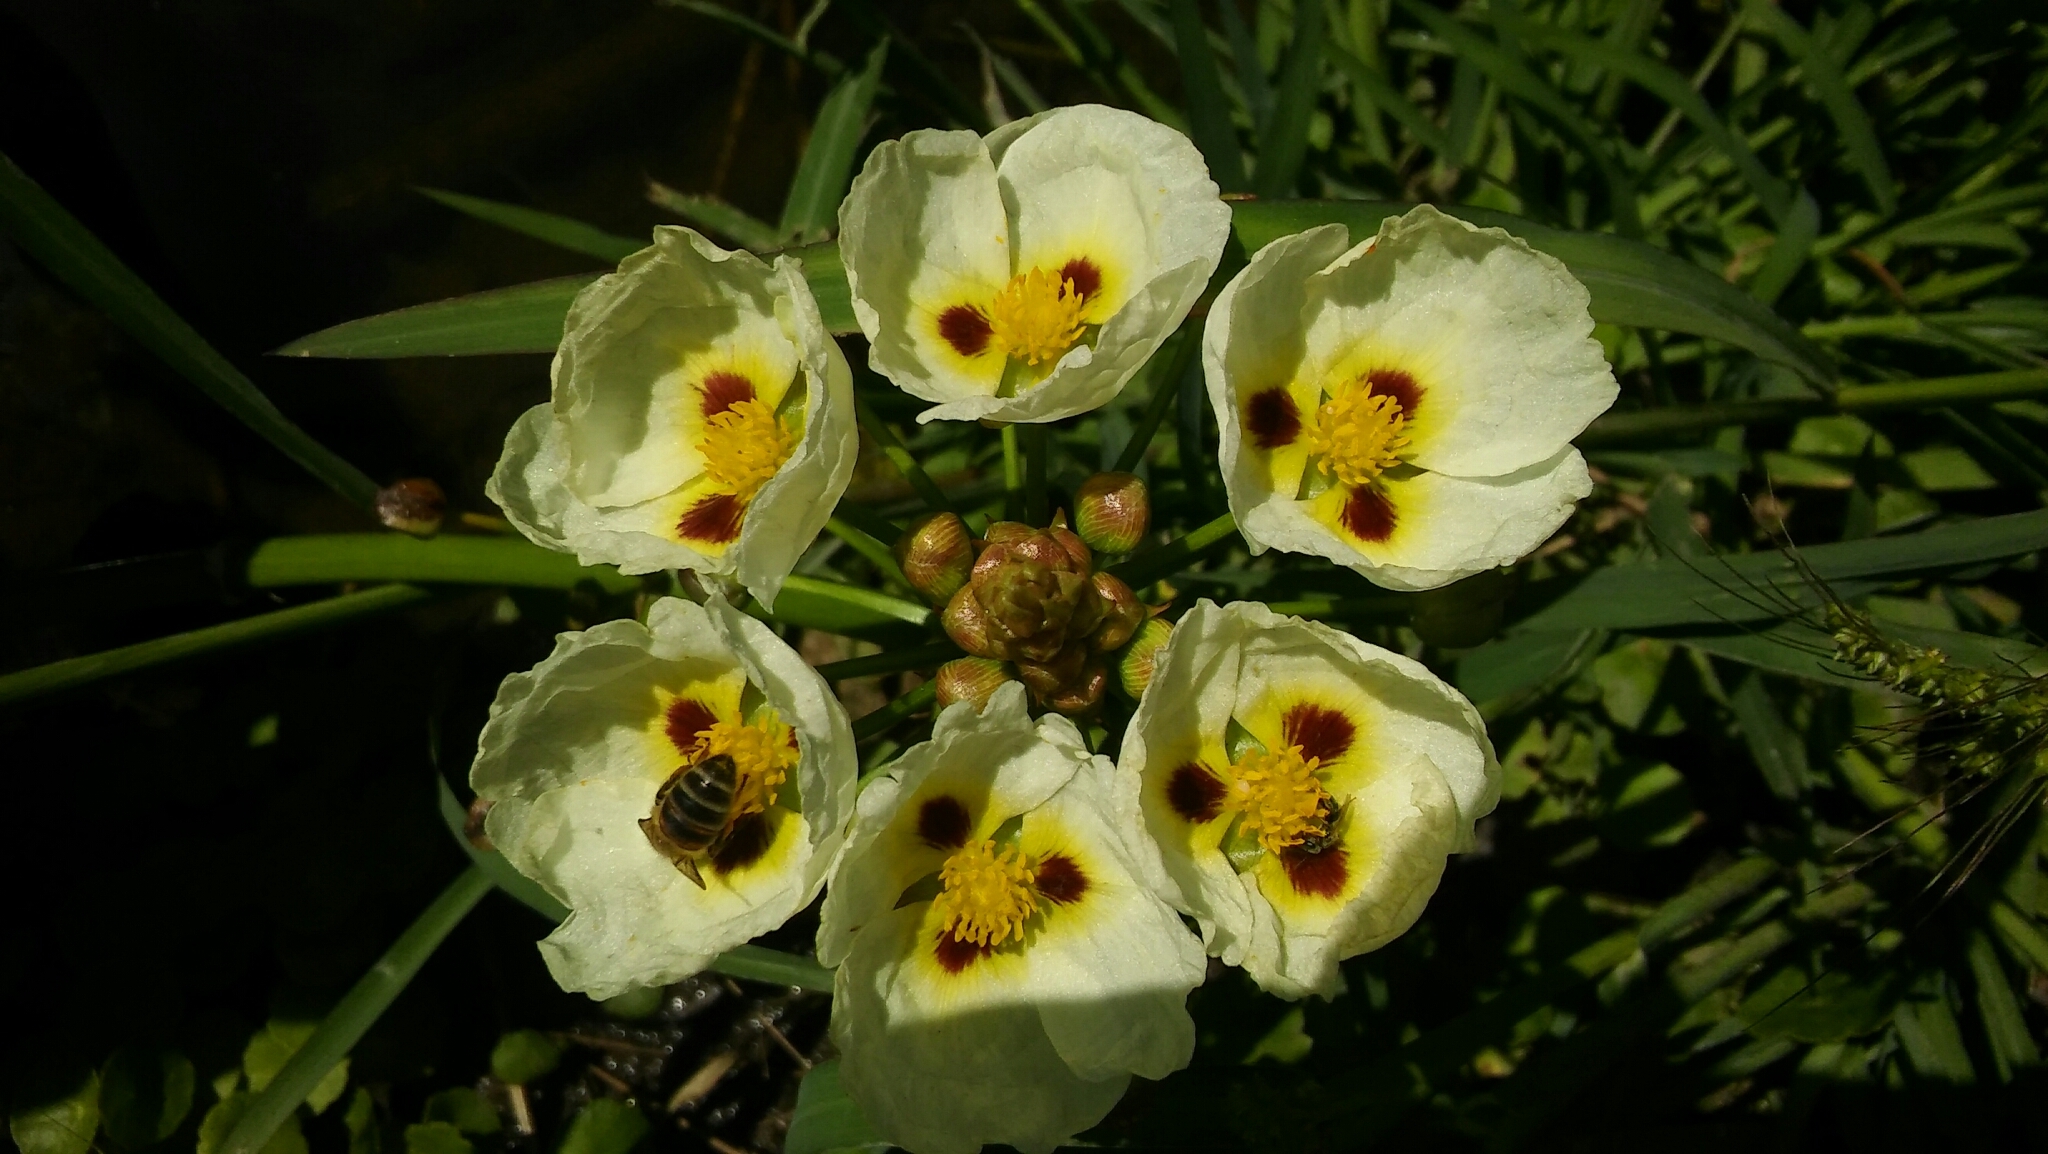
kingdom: Plantae
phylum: Tracheophyta
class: Liliopsida
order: Alismatales
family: Alismataceae
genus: Sagittaria
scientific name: Sagittaria montevidensis
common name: Giant arrowhead
